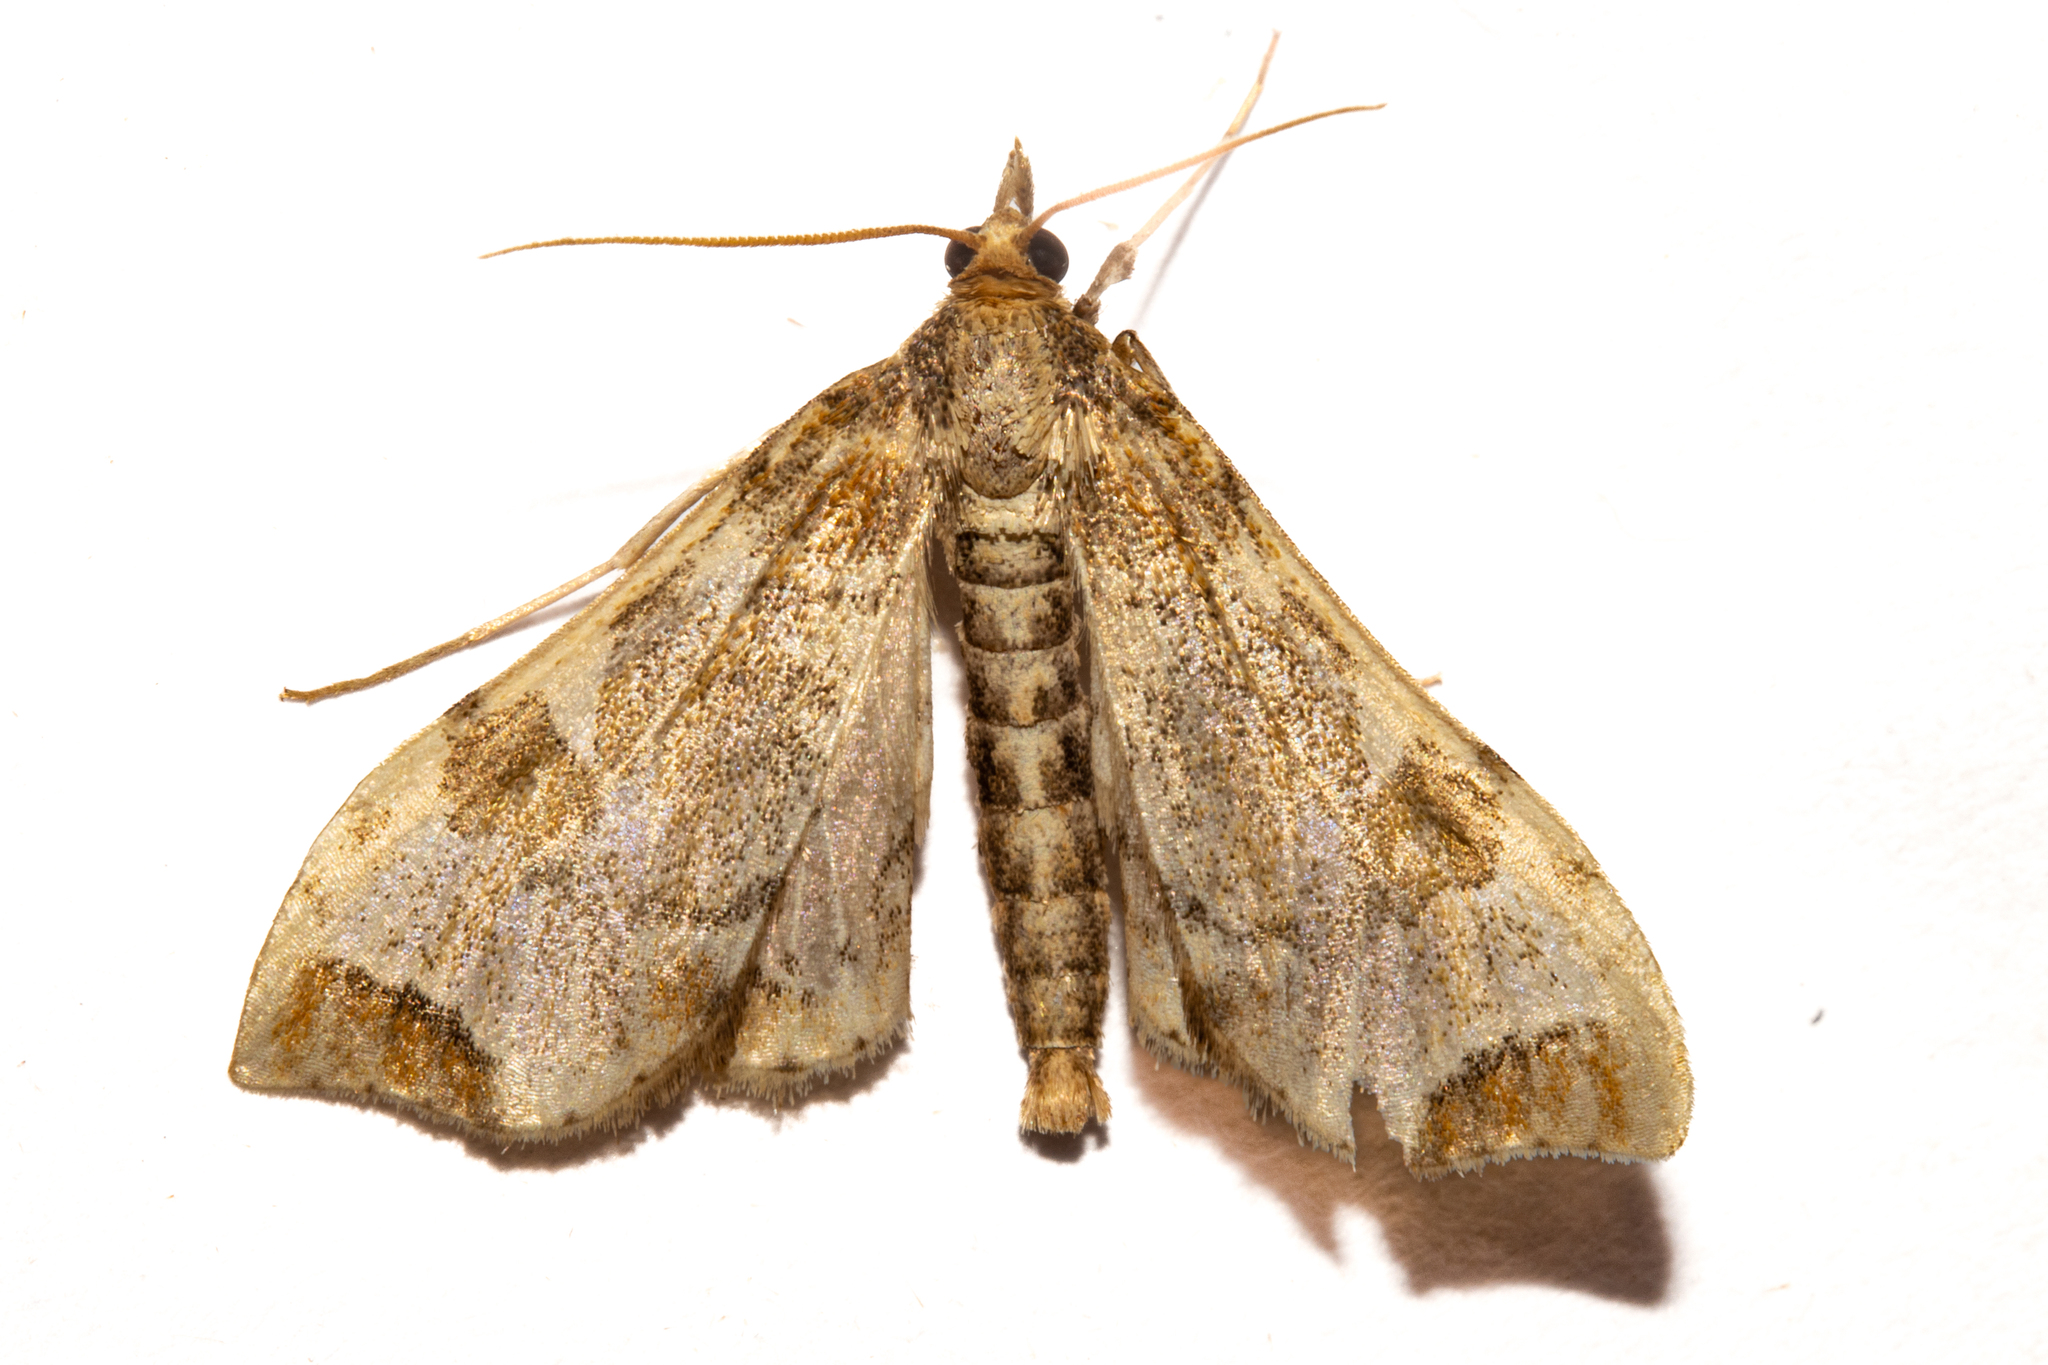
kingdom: Animalia
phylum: Arthropoda
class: Insecta
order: Lepidoptera
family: Crambidae
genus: Sceliodes
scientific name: Sceliodes cordalis
